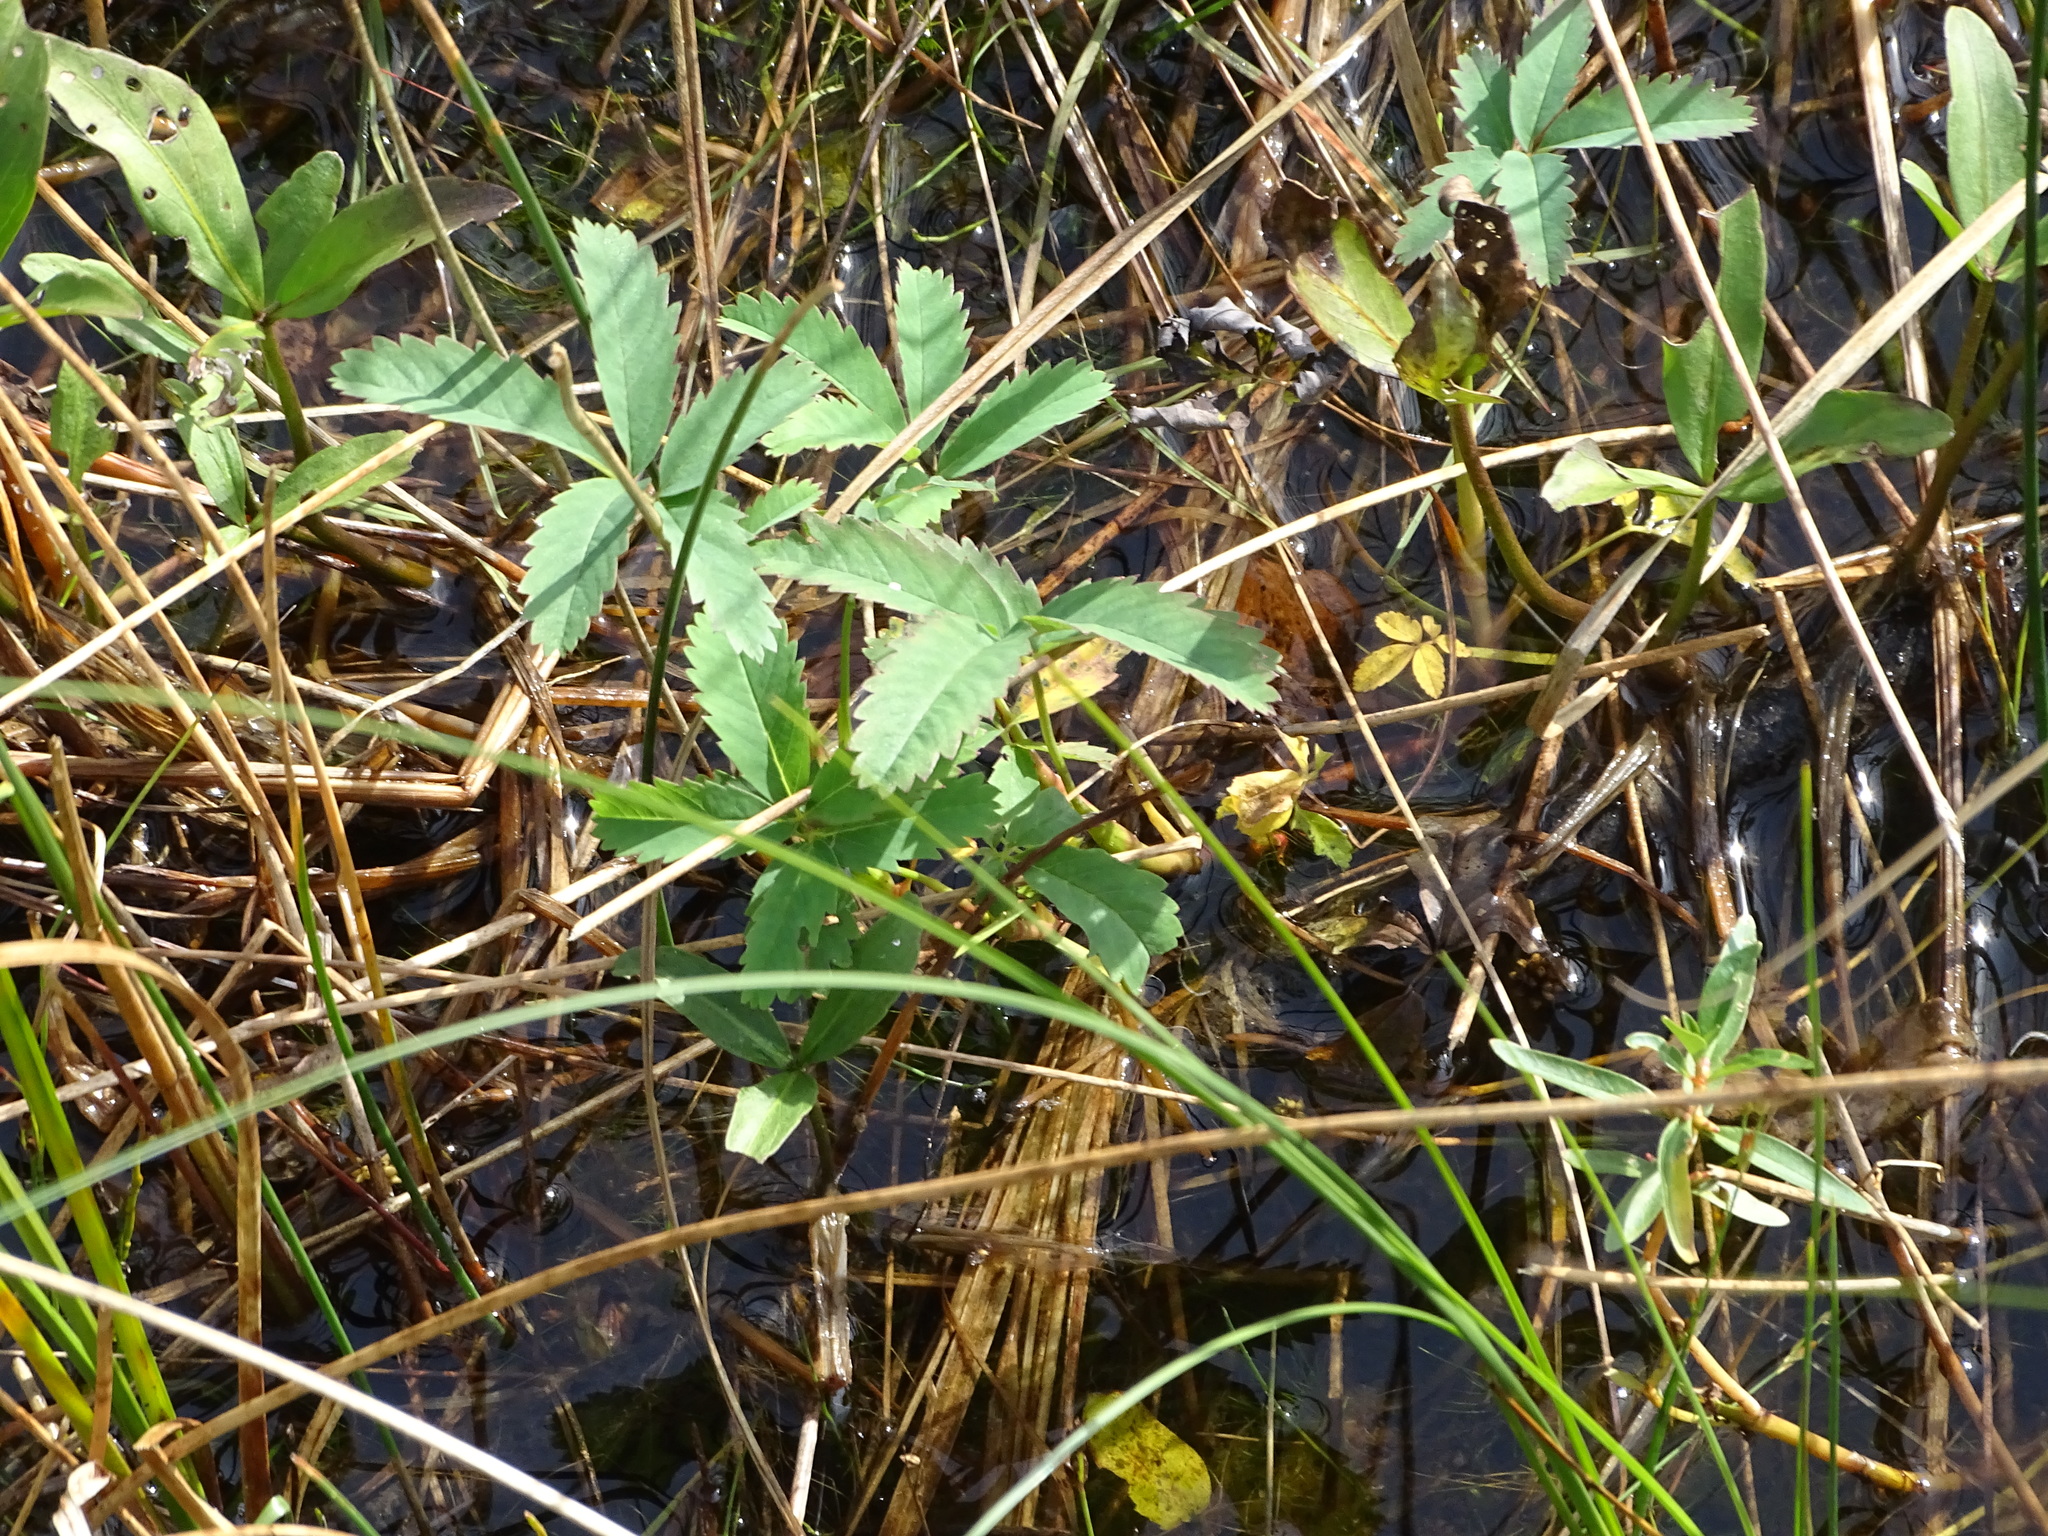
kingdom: Plantae
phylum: Tracheophyta
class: Magnoliopsida
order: Rosales
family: Rosaceae
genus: Comarum
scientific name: Comarum palustre
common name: Marsh cinquefoil
